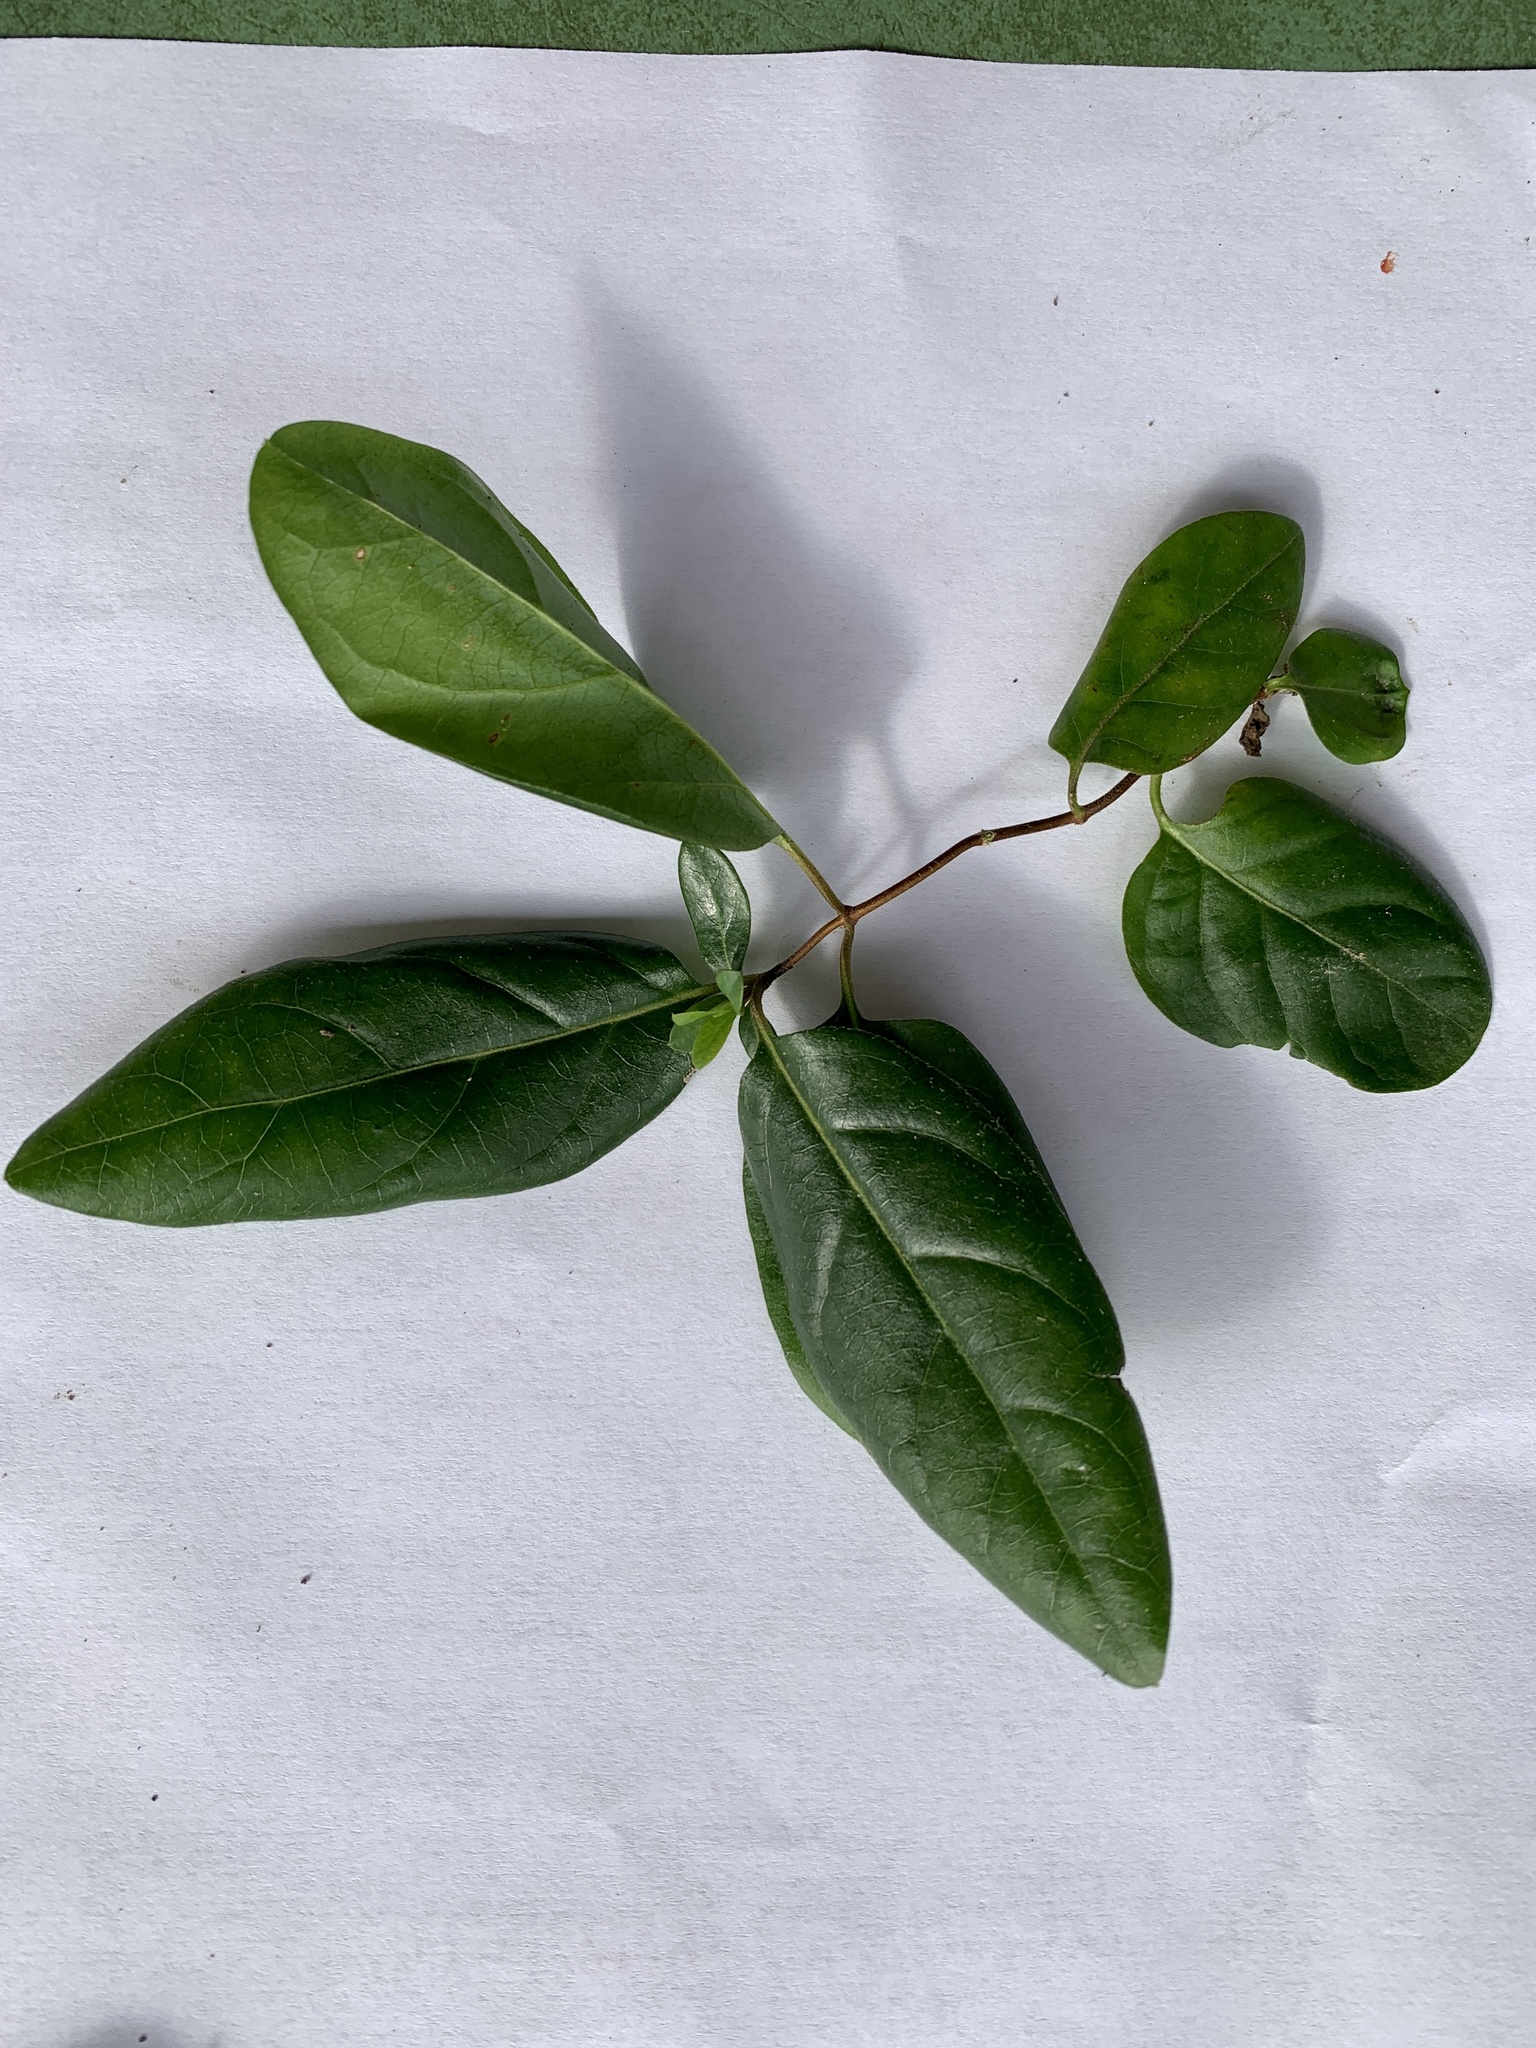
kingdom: Plantae
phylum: Tracheophyta
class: Magnoliopsida
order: Dipsacales
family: Caprifoliaceae
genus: Lonicera
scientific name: Lonicera japonica
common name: Japanese honeysuckle
